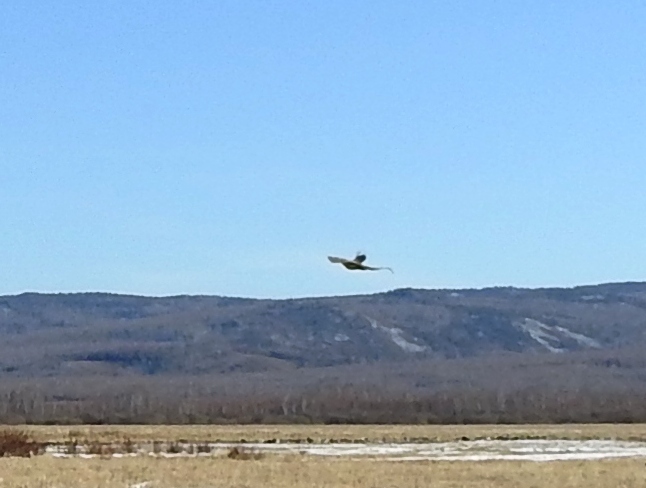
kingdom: Animalia
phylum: Chordata
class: Aves
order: Galliformes
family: Phasianidae
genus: Phasianus
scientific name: Phasianus colchicus
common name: Common pheasant
